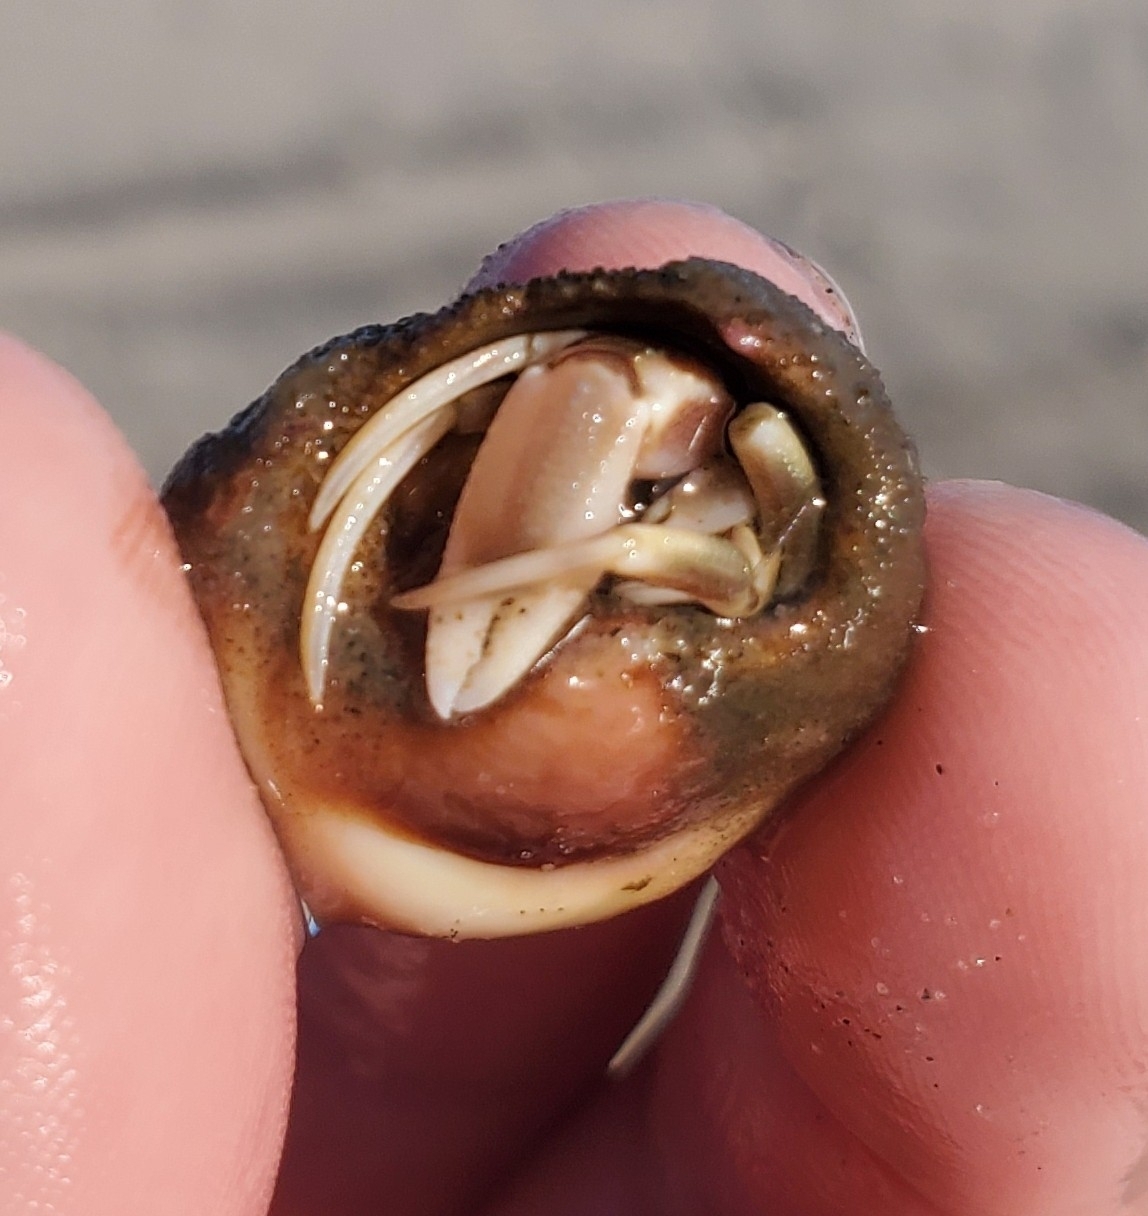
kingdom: Animalia
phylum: Arthropoda
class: Malacostraca
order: Decapoda
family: Paguridae
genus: Pagurus
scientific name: Pagurus longicarpus
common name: Long-armed hermit crab
